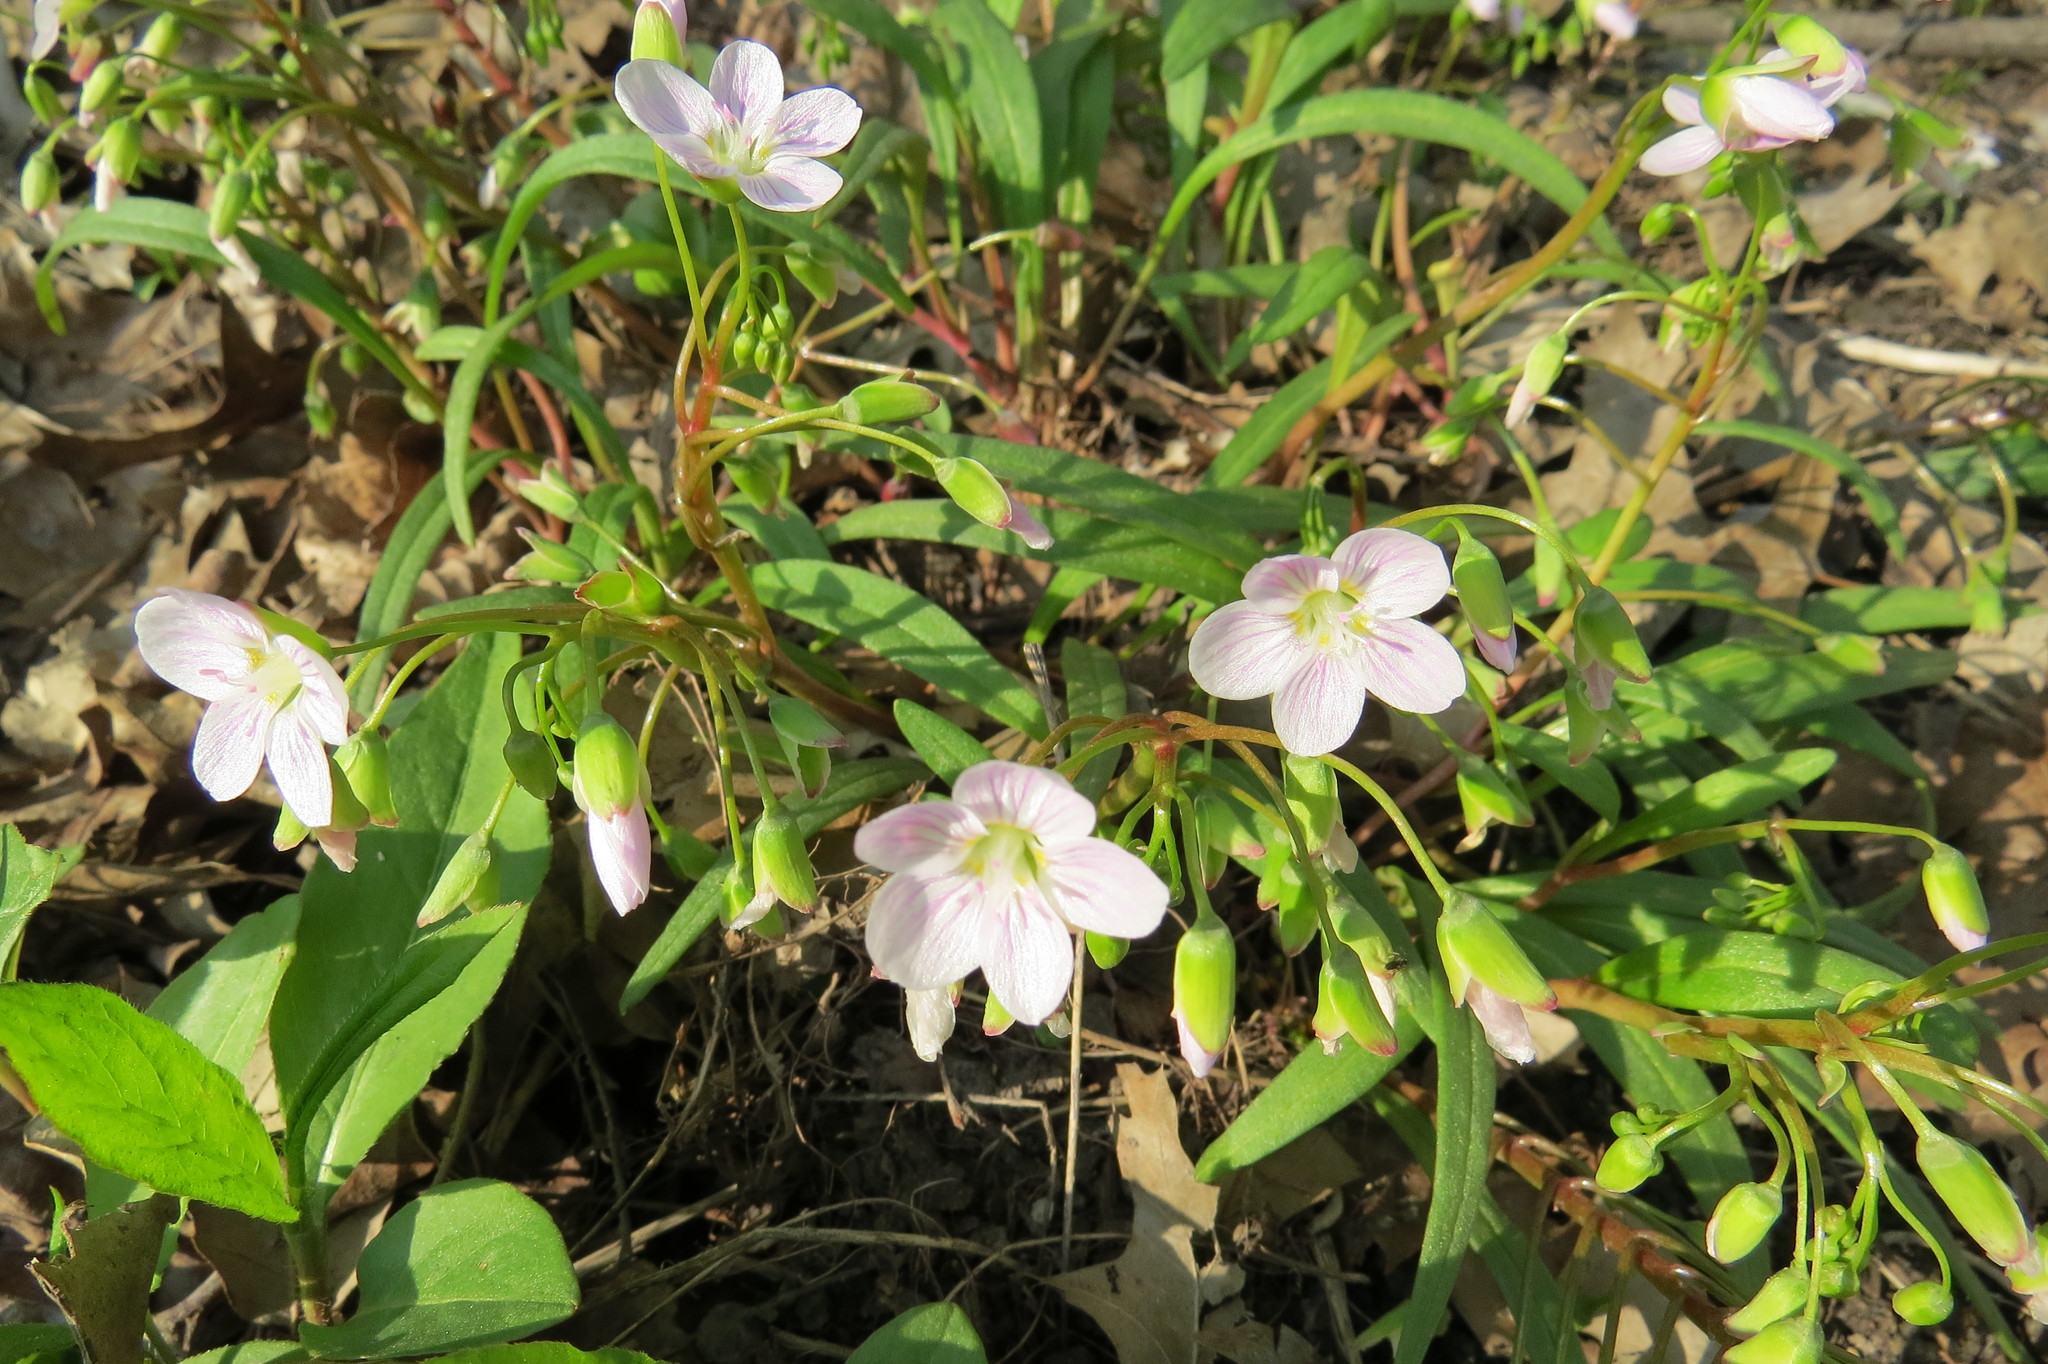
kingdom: Plantae
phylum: Tracheophyta
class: Magnoliopsida
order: Caryophyllales
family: Montiaceae
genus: Claytonia
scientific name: Claytonia virginica
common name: Virginia springbeauty
